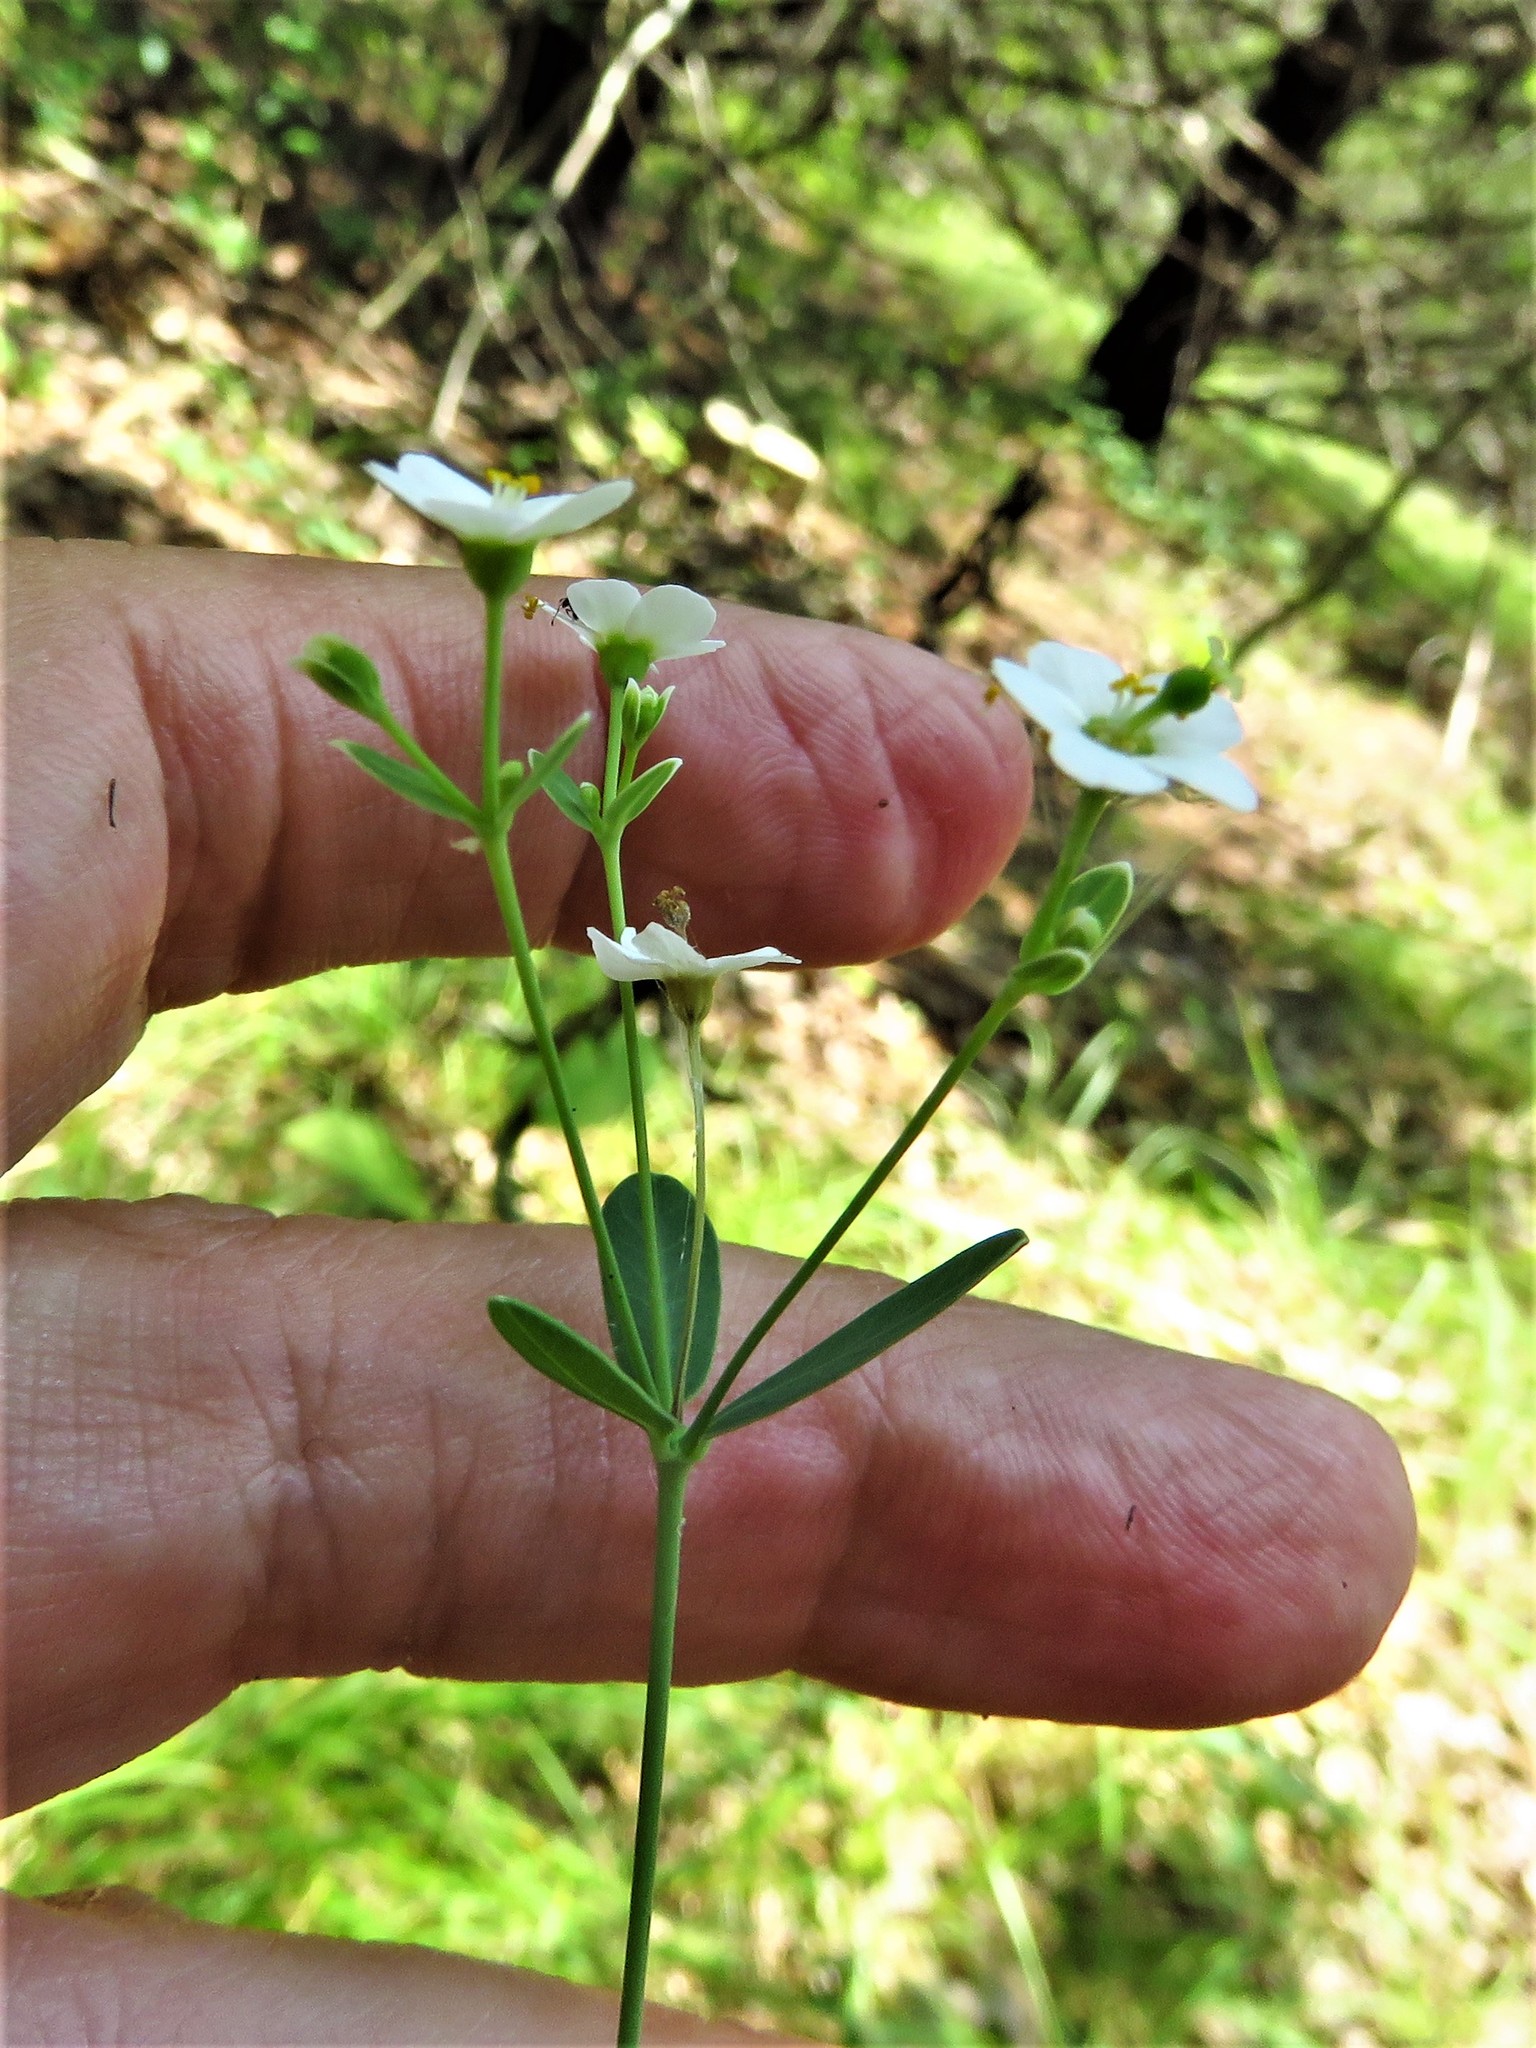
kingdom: Plantae
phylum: Tracheophyta
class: Magnoliopsida
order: Malpighiales
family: Euphorbiaceae
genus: Euphorbia
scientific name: Euphorbia corollata
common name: Flowering spurge
